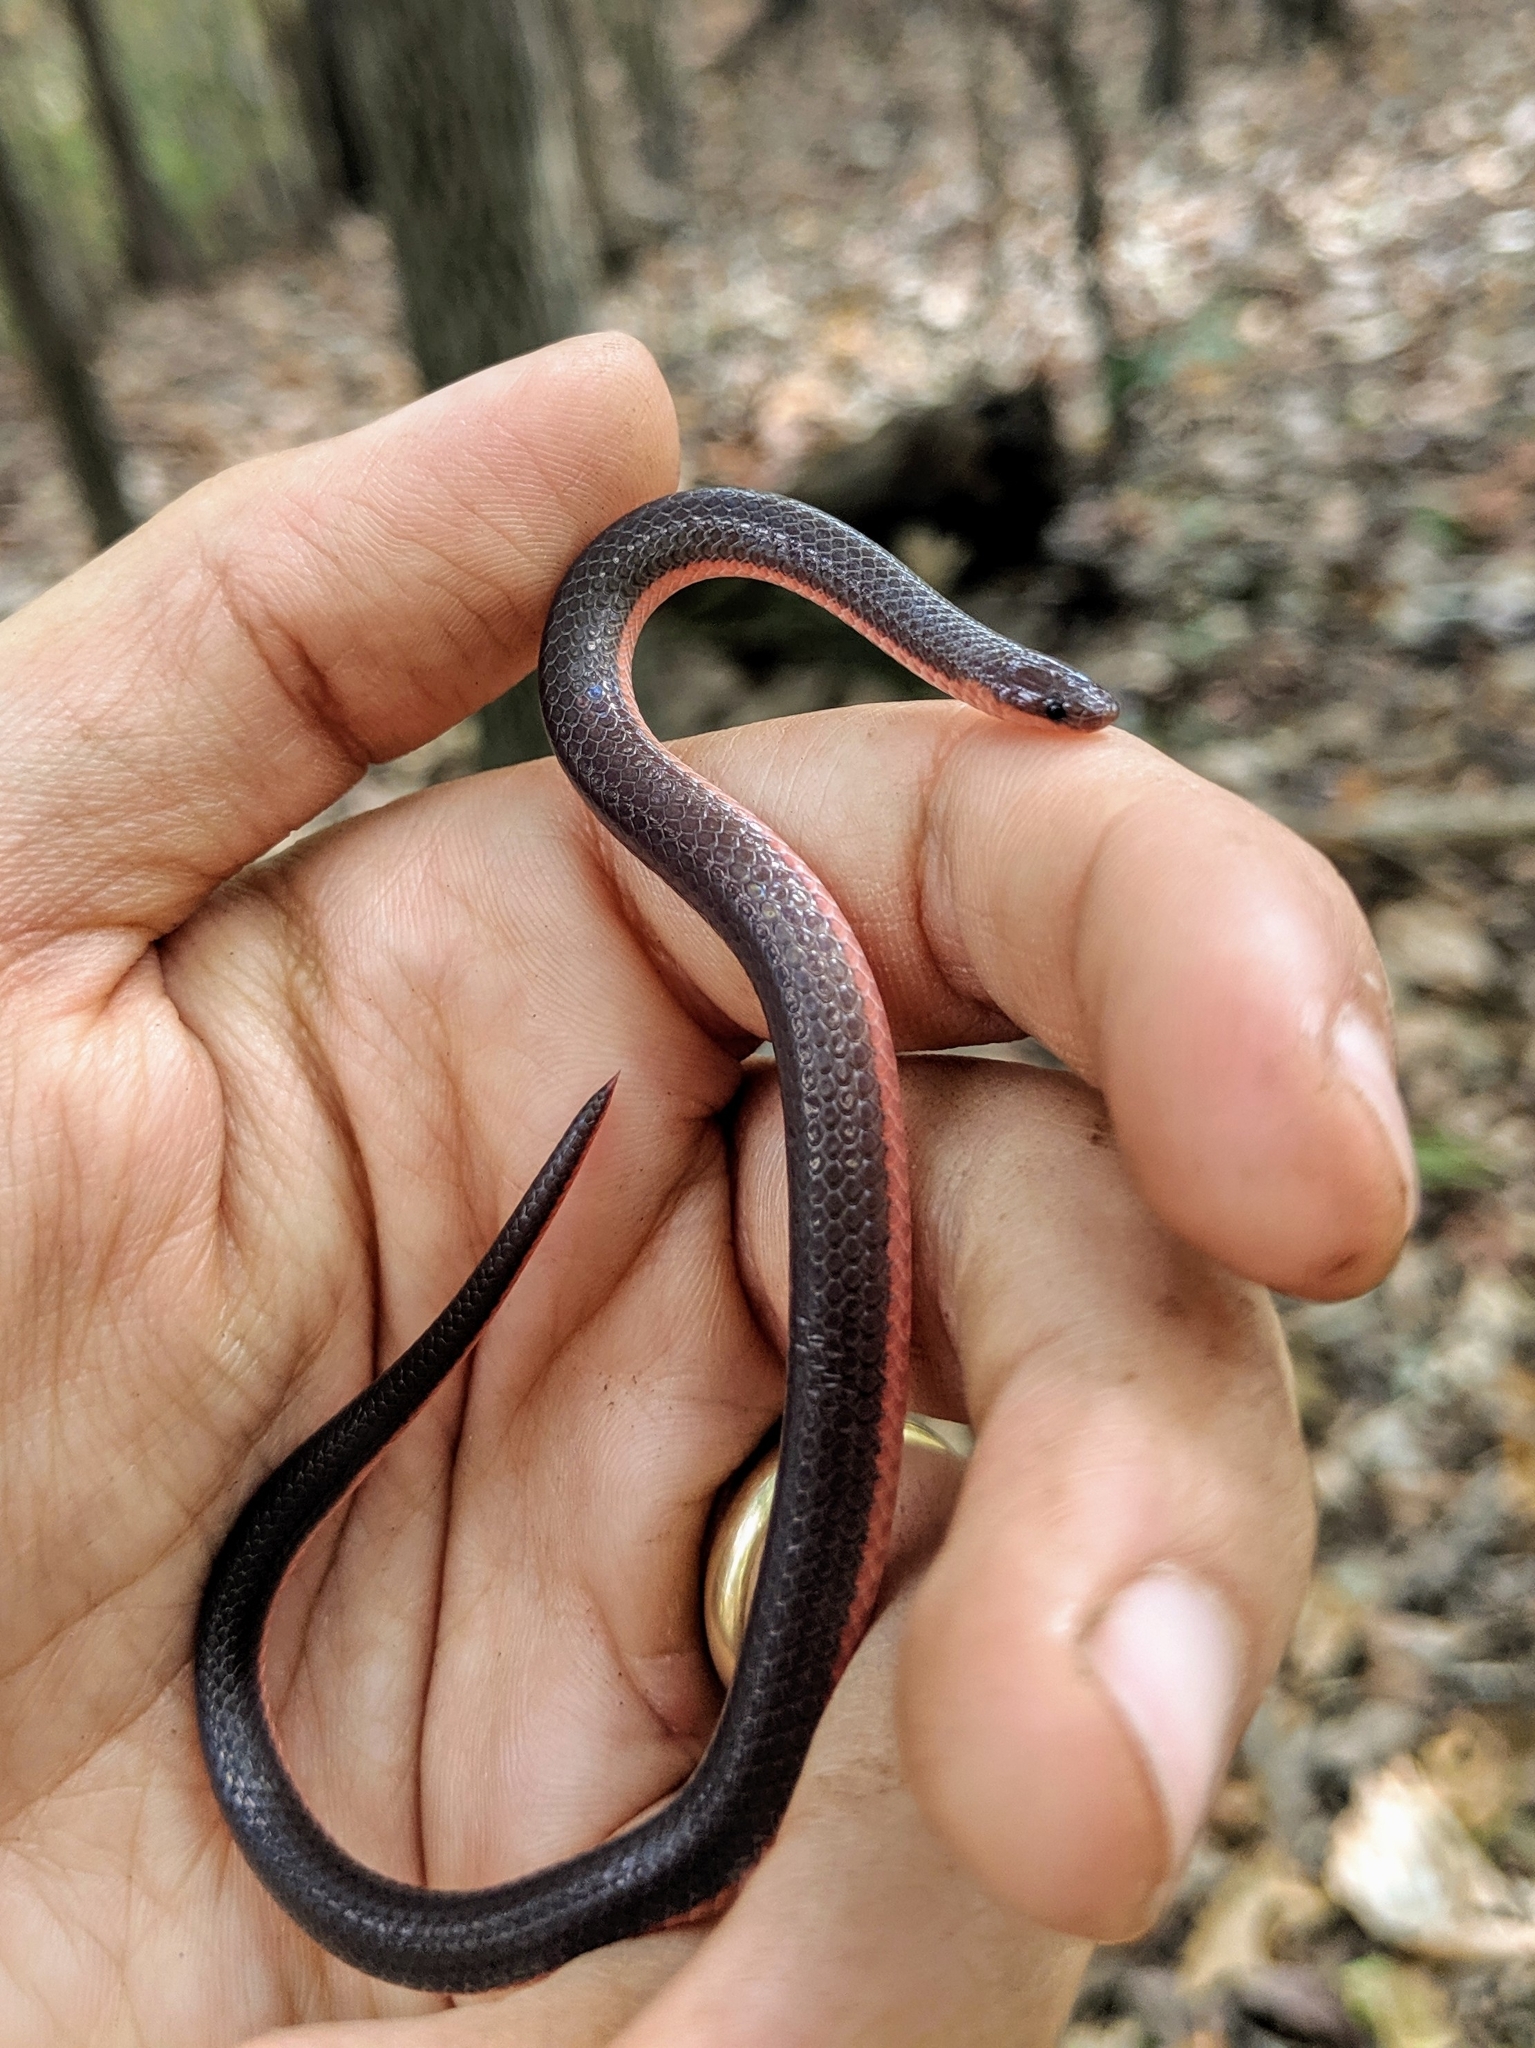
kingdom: Animalia
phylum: Chordata
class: Squamata
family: Colubridae
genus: Carphophis
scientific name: Carphophis amoenus
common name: Eastern worm snake
